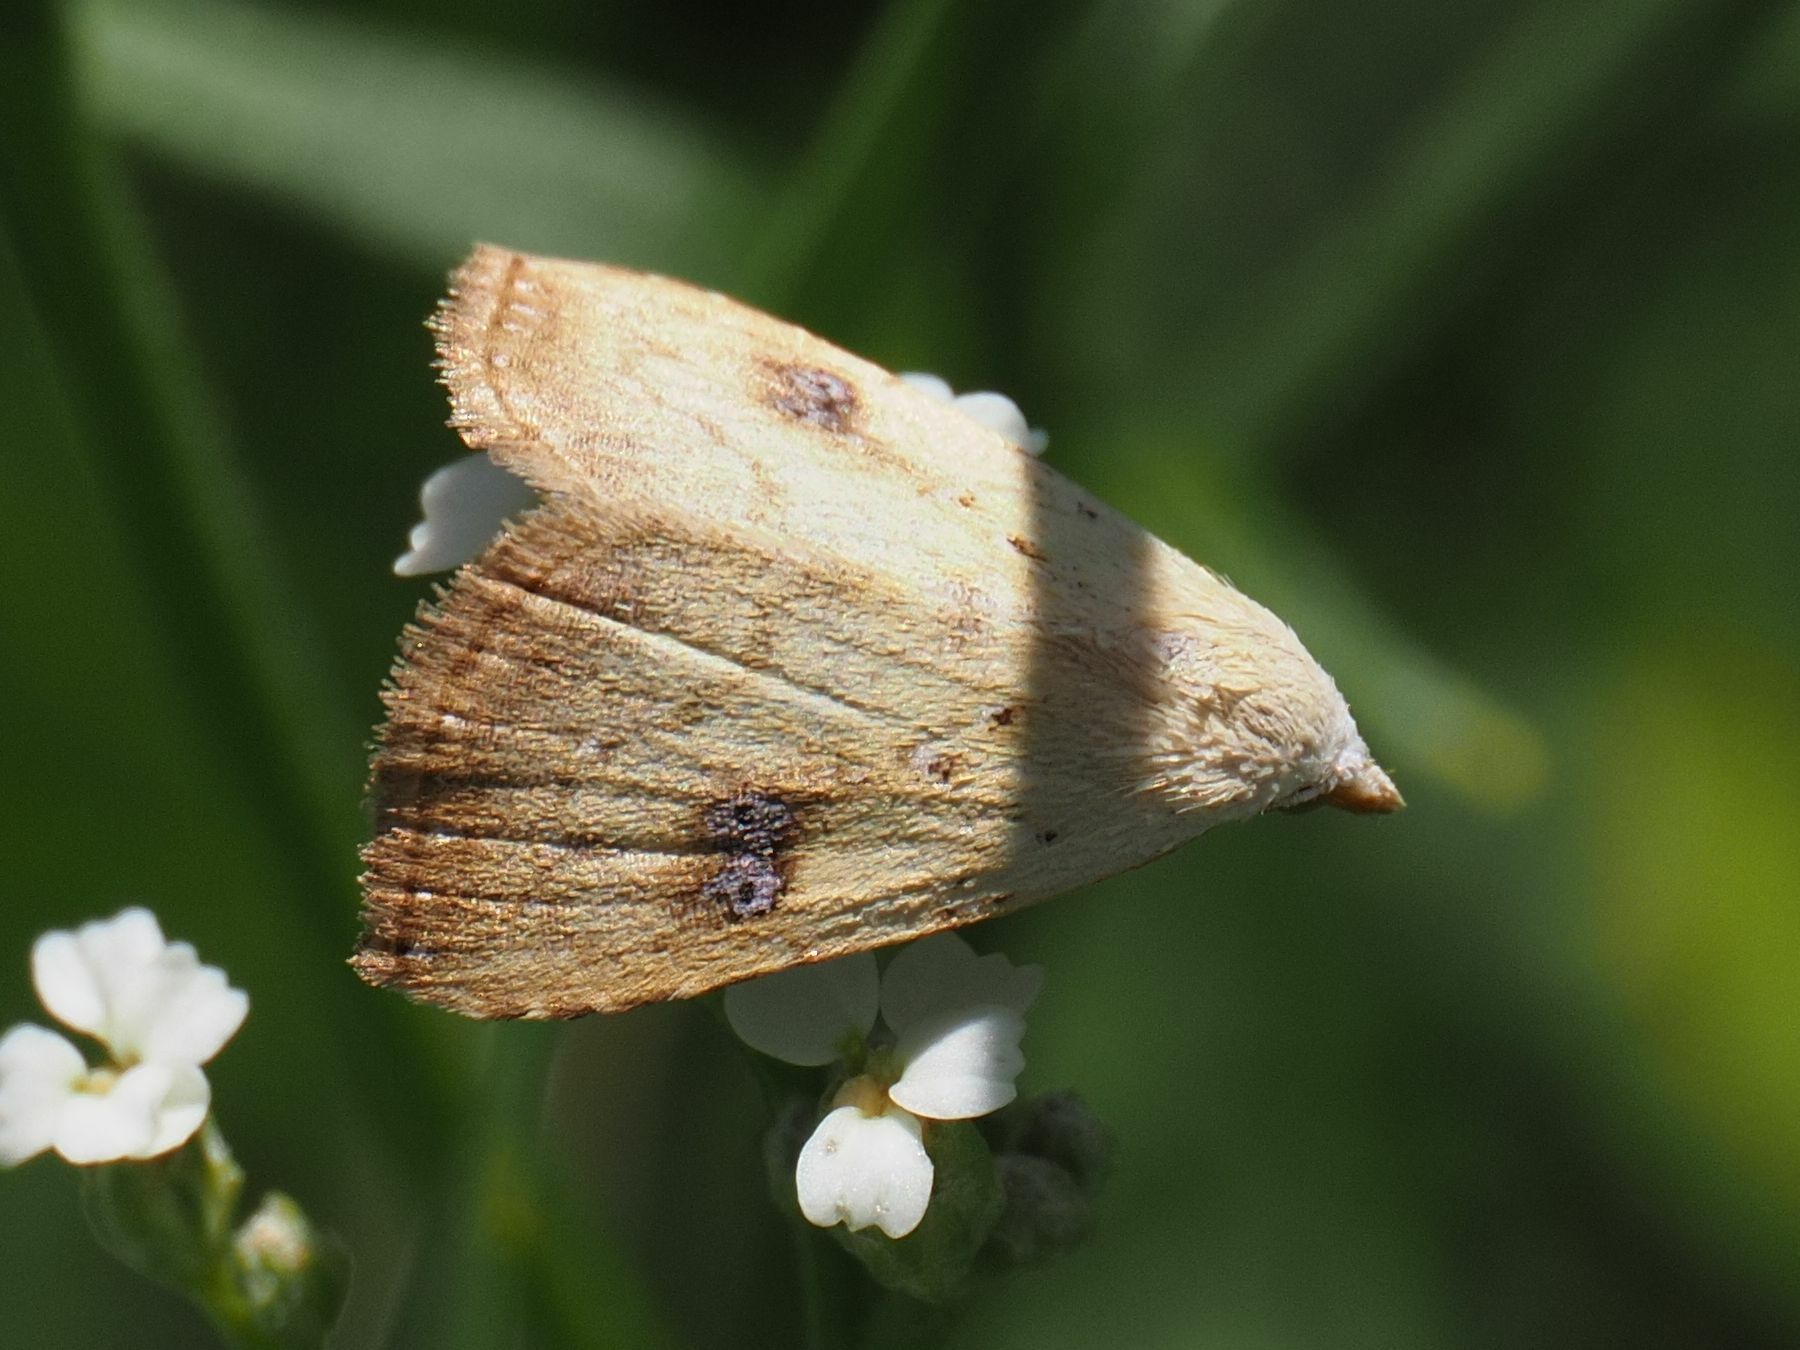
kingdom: Animalia
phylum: Arthropoda
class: Insecta
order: Lepidoptera
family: Erebidae
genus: Rivula
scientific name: Rivula sericealis
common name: Straw dot
